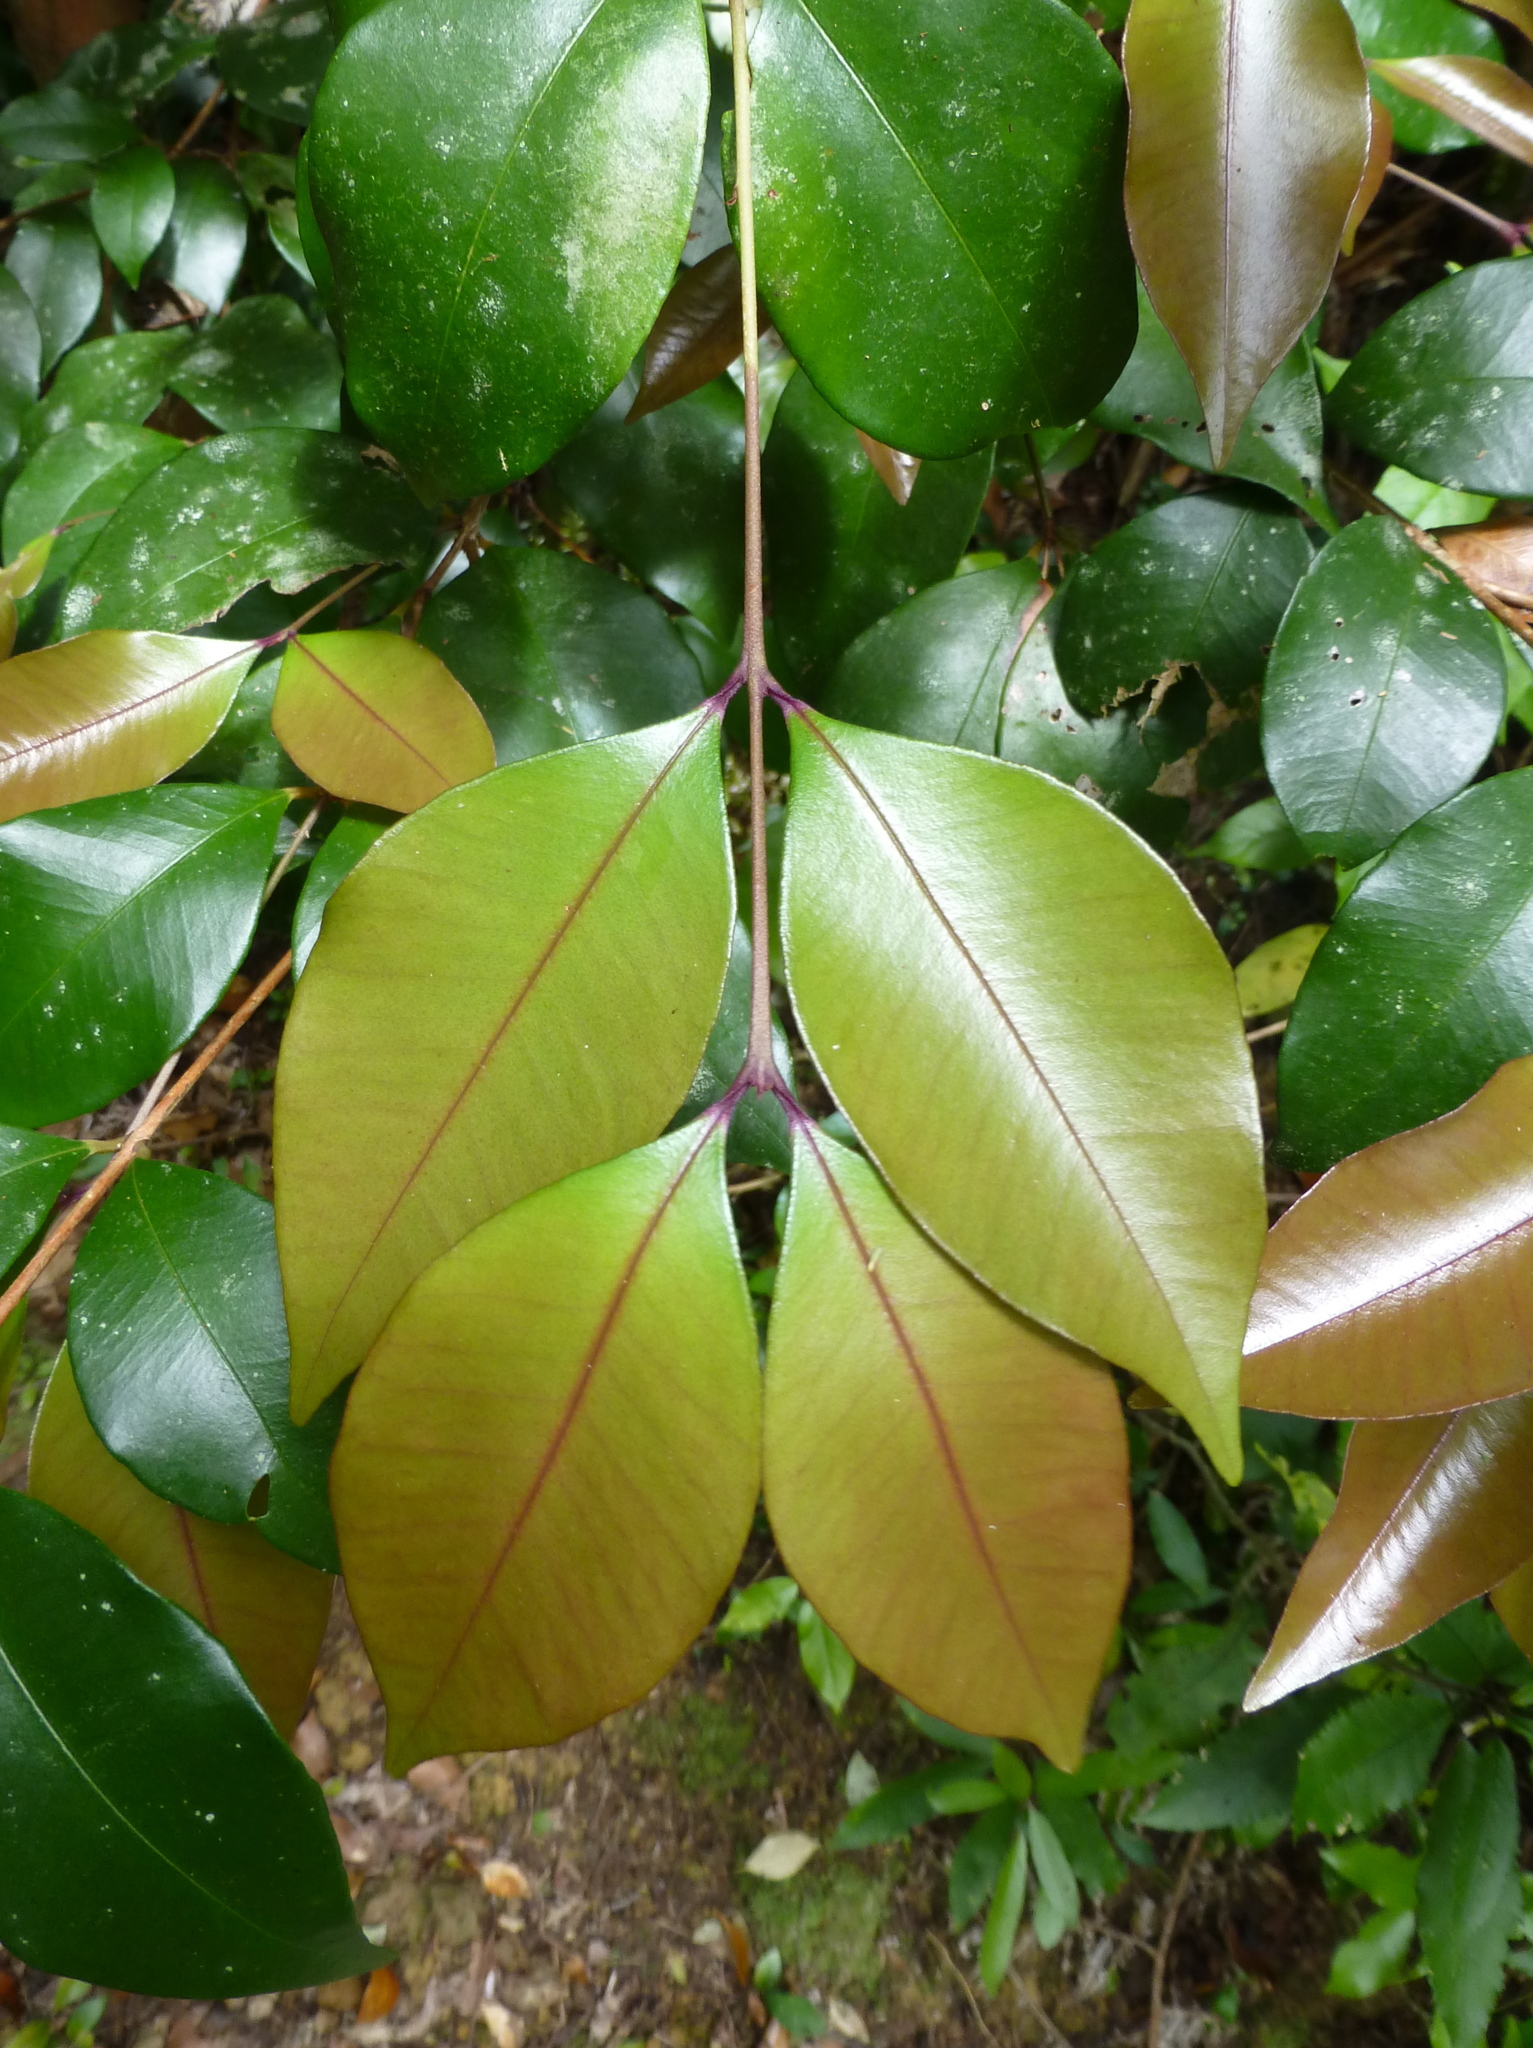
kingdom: Plantae
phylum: Tracheophyta
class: Magnoliopsida
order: Myrtales
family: Myrtaceae
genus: Syzygium
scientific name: Syzygium smithii
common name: Lilly-pilly
